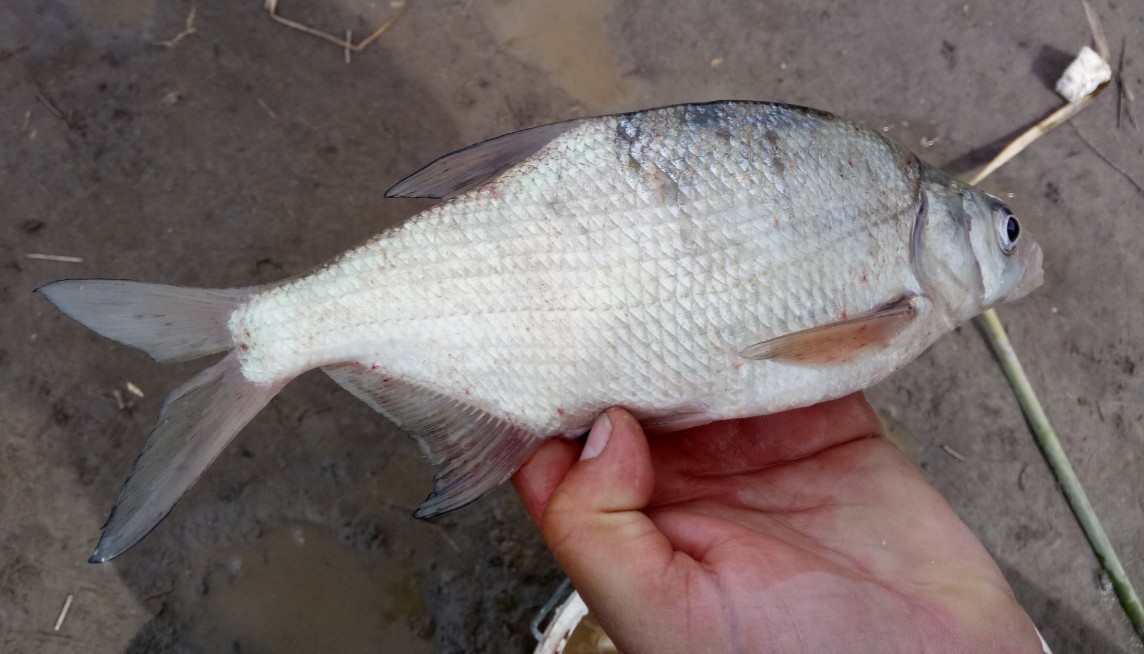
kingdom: Animalia
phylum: Chordata
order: Cypriniformes
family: Cyprinidae
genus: Abramis
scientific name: Abramis brama
